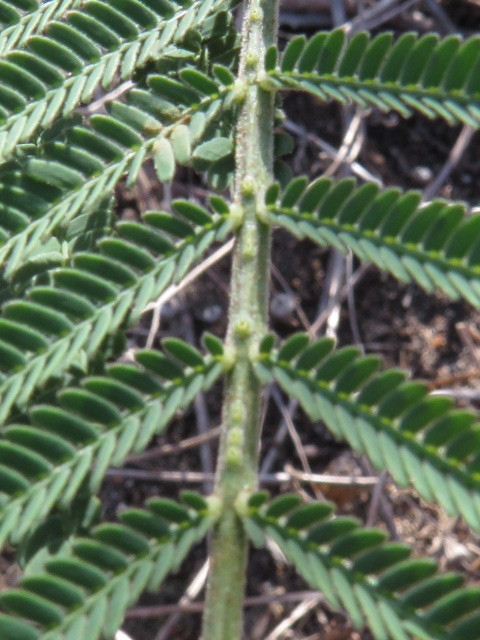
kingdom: Plantae
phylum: Tracheophyta
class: Magnoliopsida
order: Fabales
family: Fabaceae
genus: Acacia
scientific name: Acacia mearnsii
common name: Black wattle
